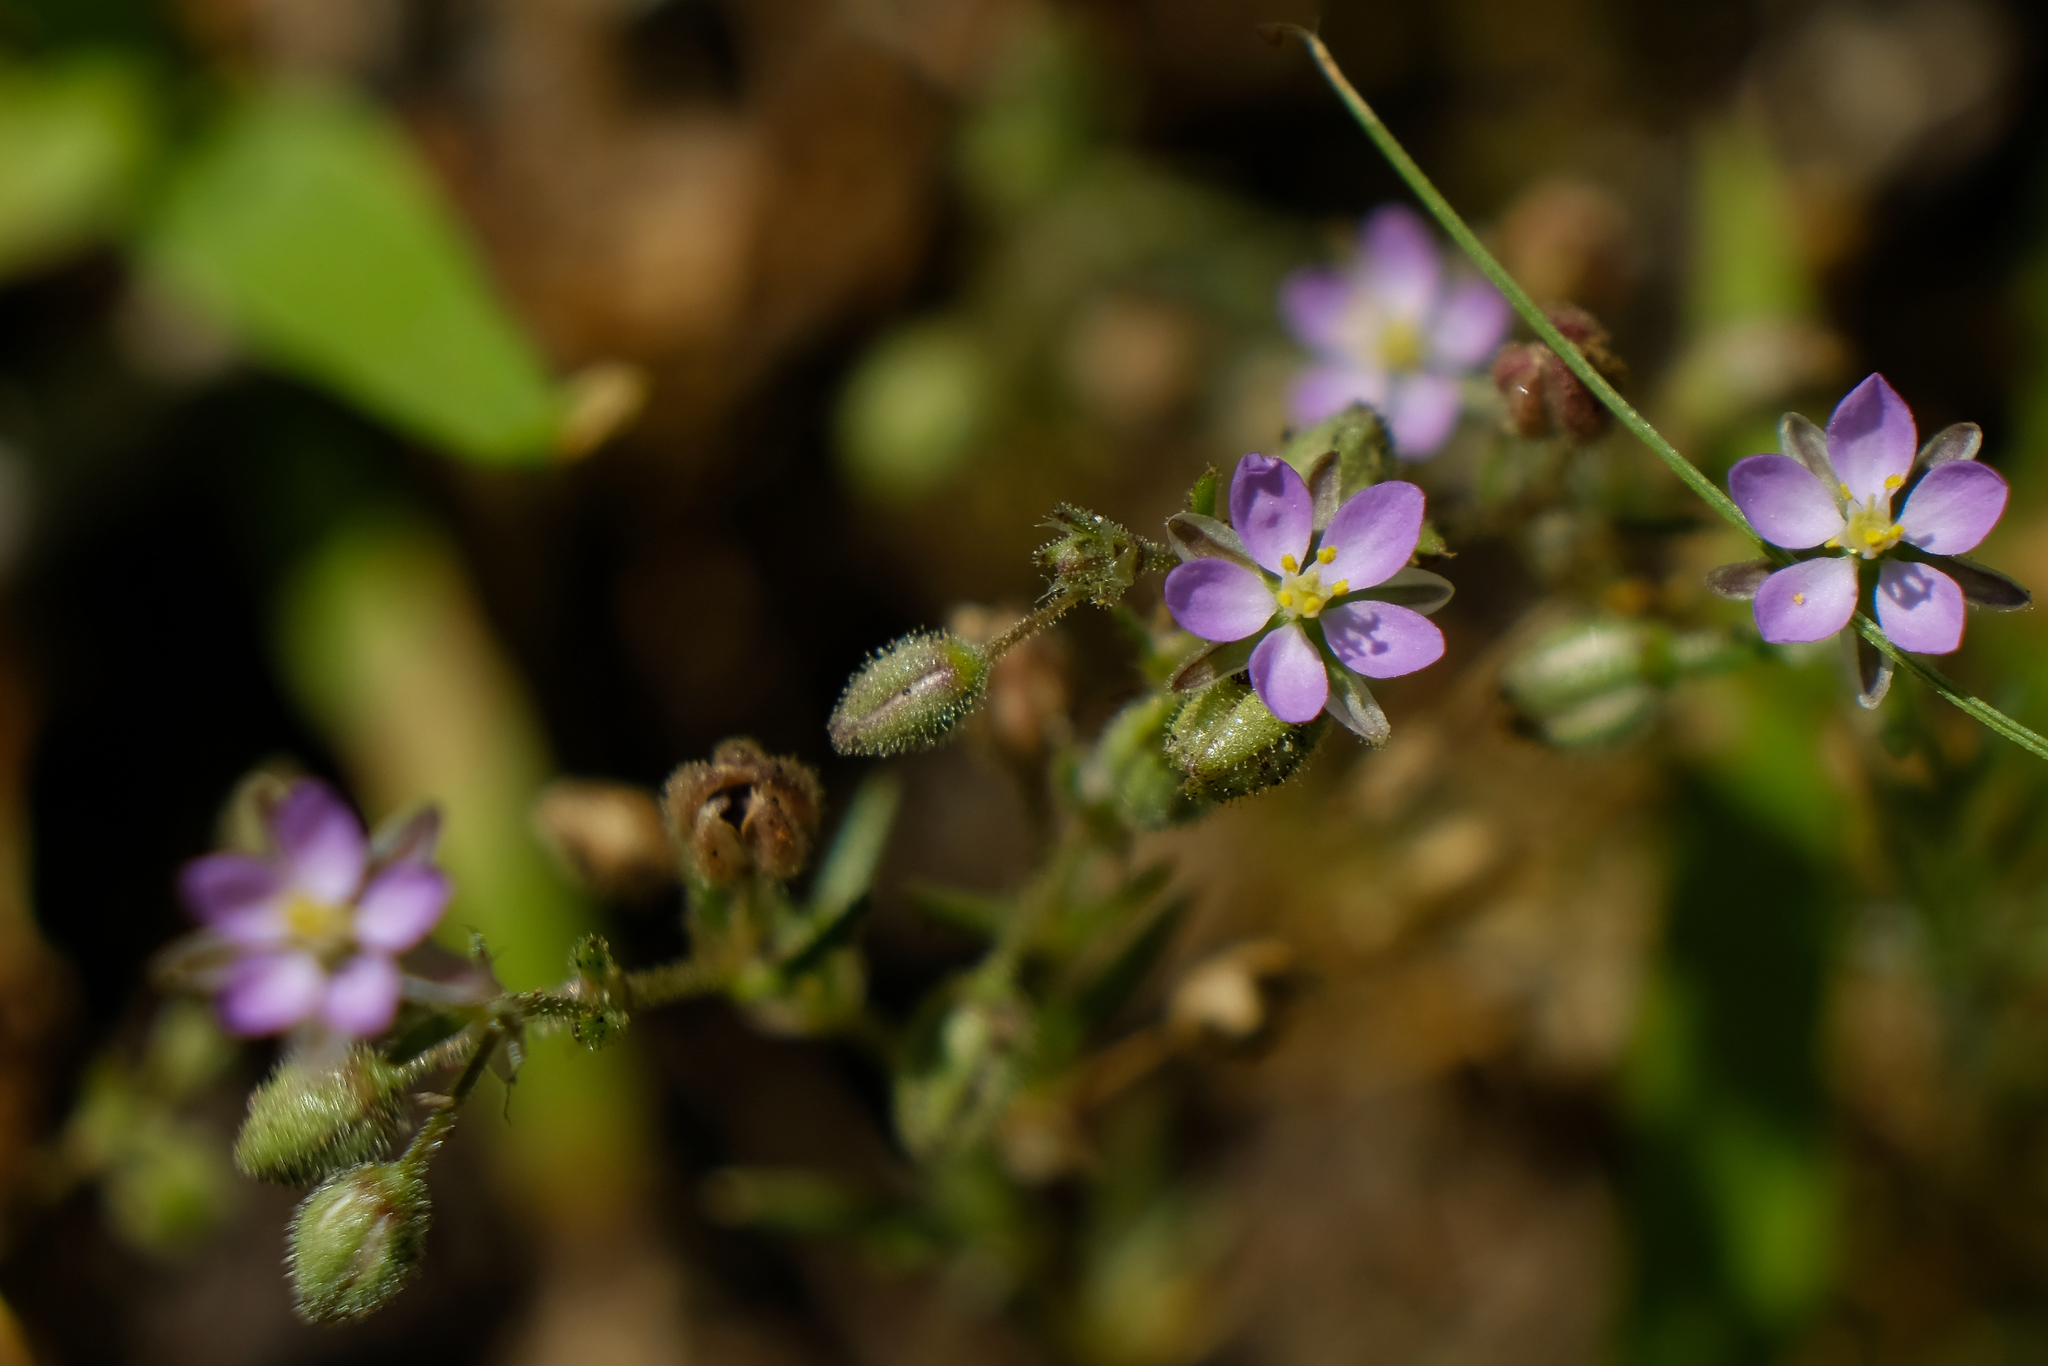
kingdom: Plantae
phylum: Tracheophyta
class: Magnoliopsida
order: Caryophyllales
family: Caryophyllaceae
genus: Spergularia
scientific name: Spergularia rubra
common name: Red sand-spurrey
